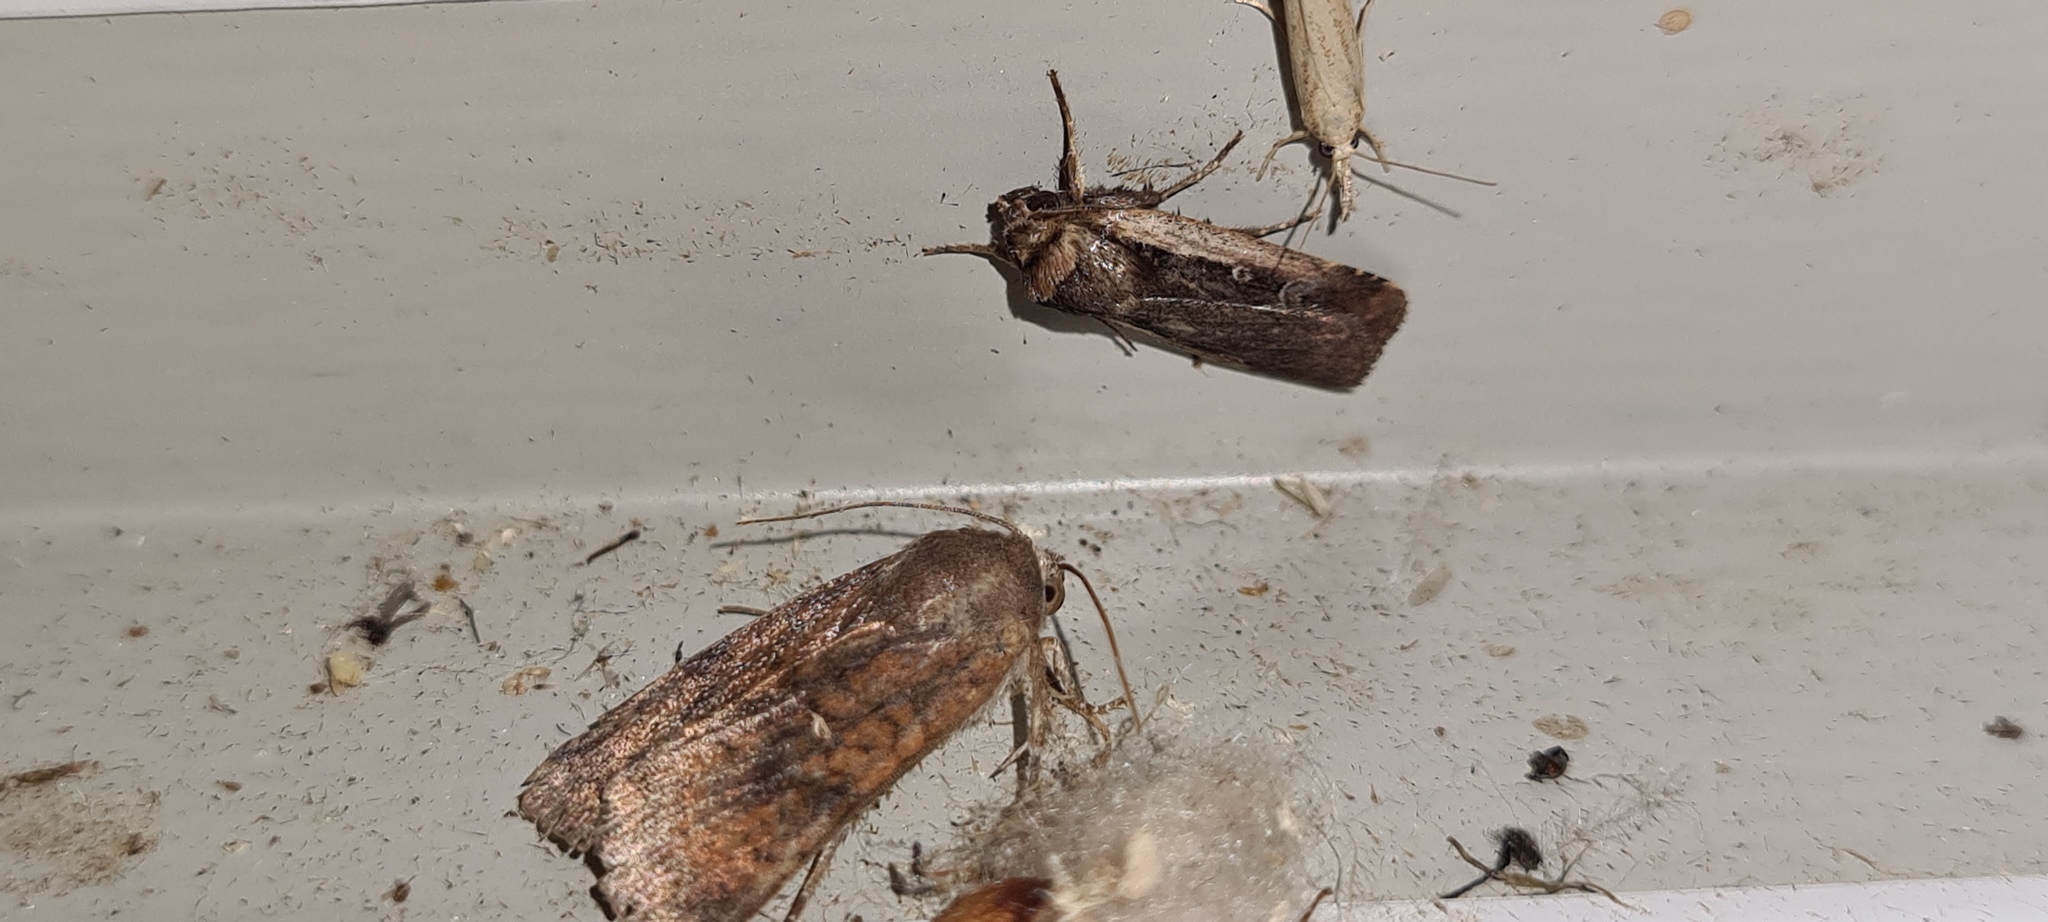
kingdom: Animalia
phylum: Arthropoda
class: Insecta
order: Lepidoptera
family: Noctuidae
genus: Ochropleura
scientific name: Ochropleura plecta
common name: Flame shoulder
